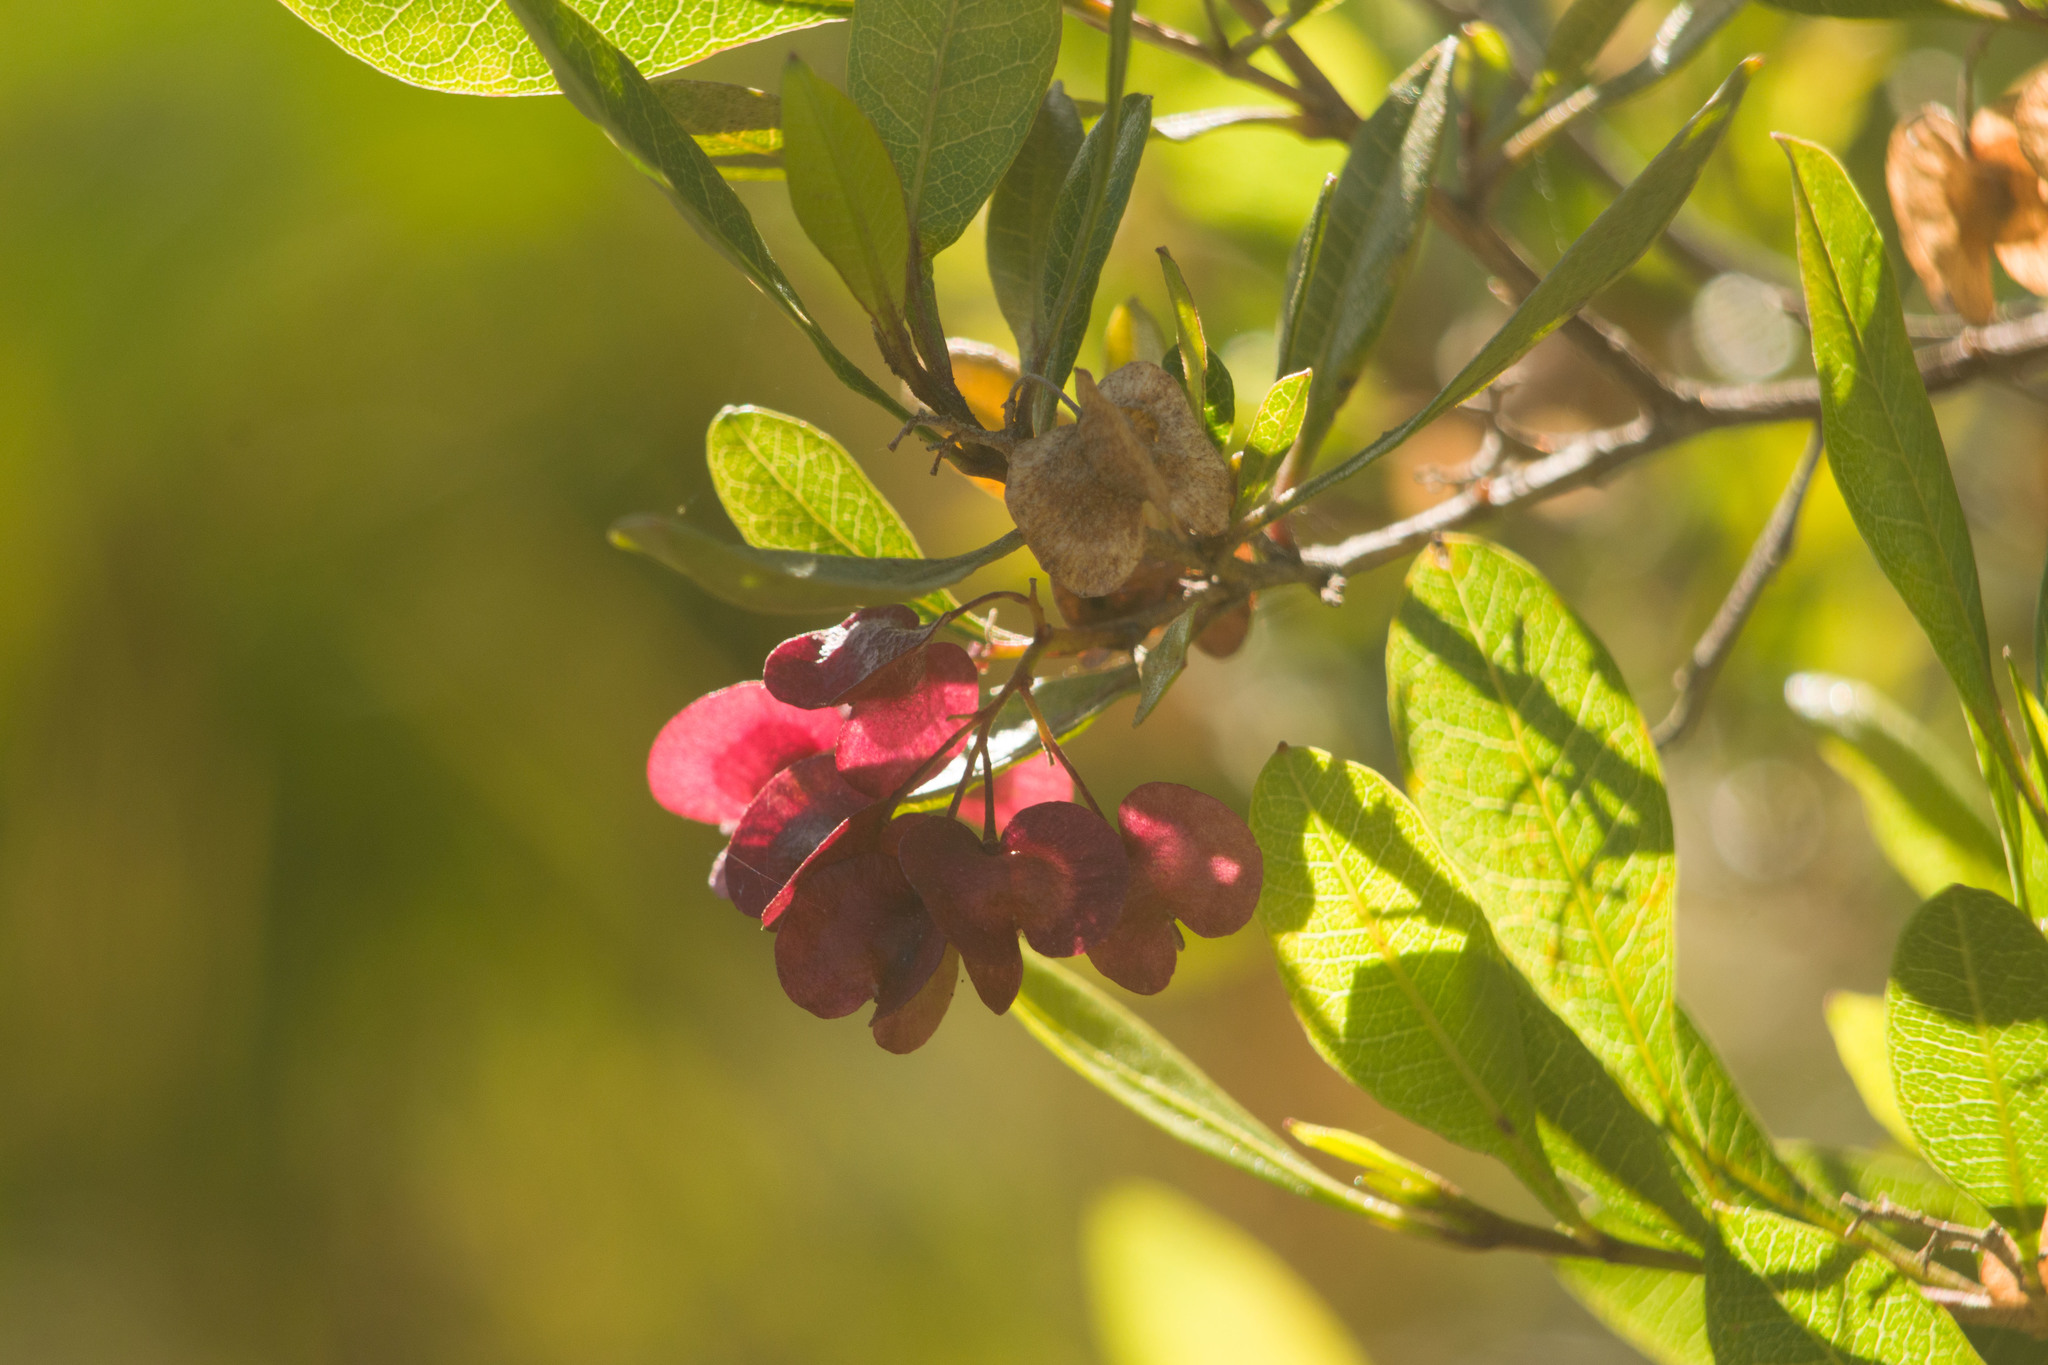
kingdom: Plantae
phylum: Tracheophyta
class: Magnoliopsida
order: Sapindales
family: Sapindaceae
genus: Dodonaea
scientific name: Dodonaea viscosa
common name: Hopbush
